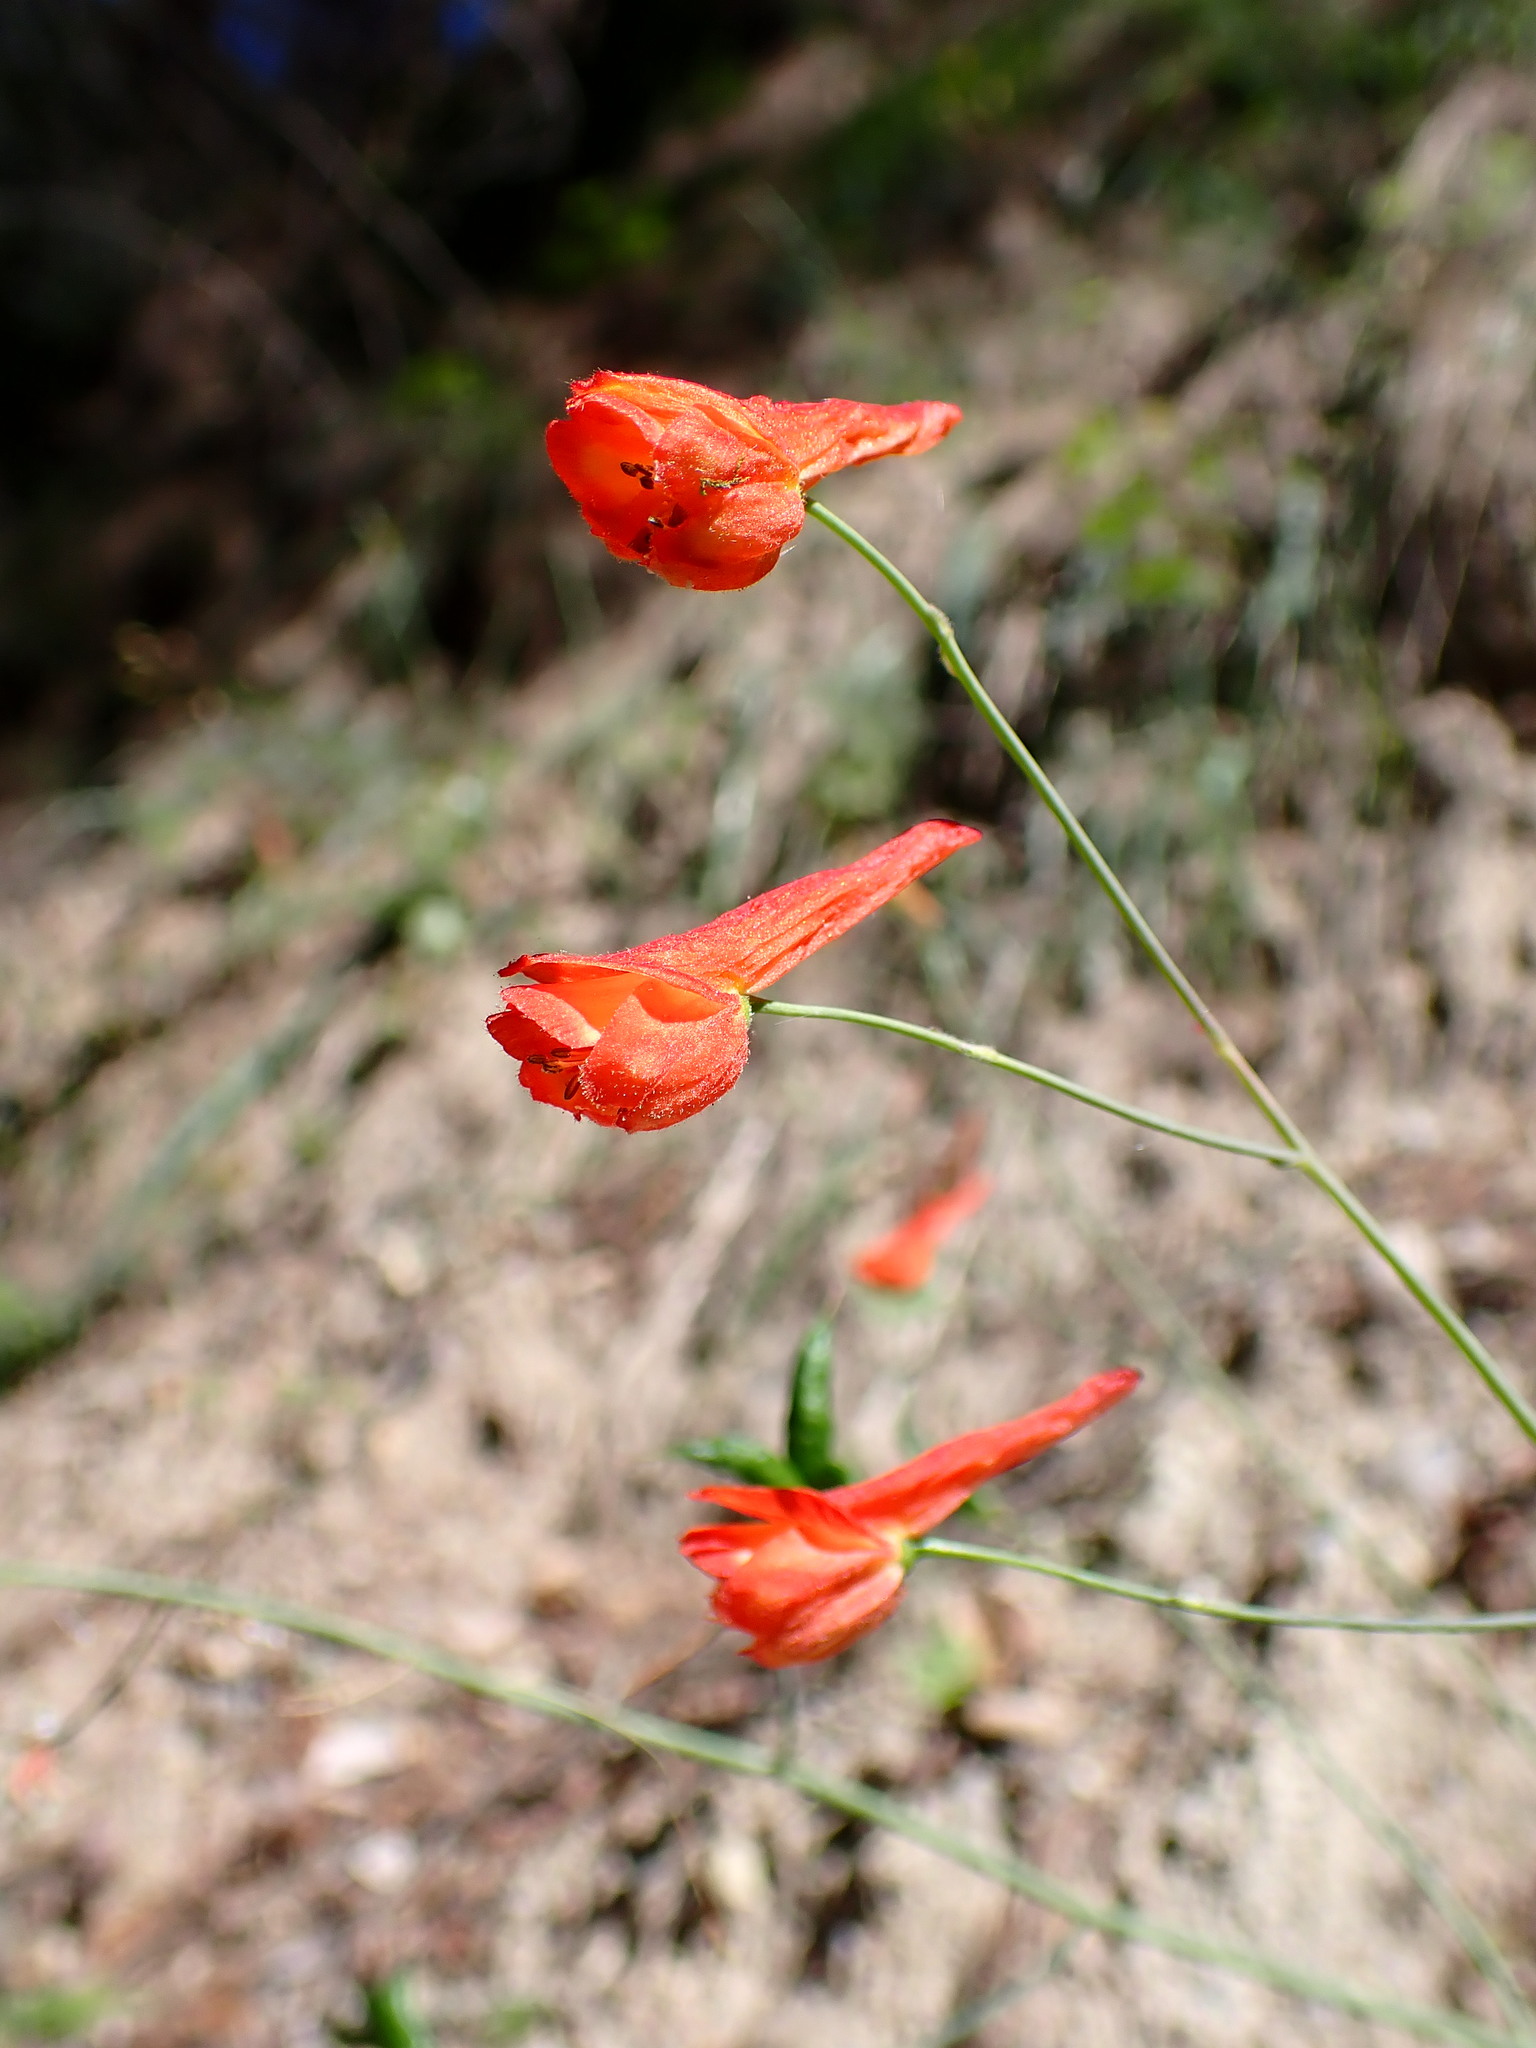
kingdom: Plantae
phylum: Tracheophyta
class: Magnoliopsida
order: Ranunculales
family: Ranunculaceae
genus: Delphinium
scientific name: Delphinium nudicaule
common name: Red larkspur
